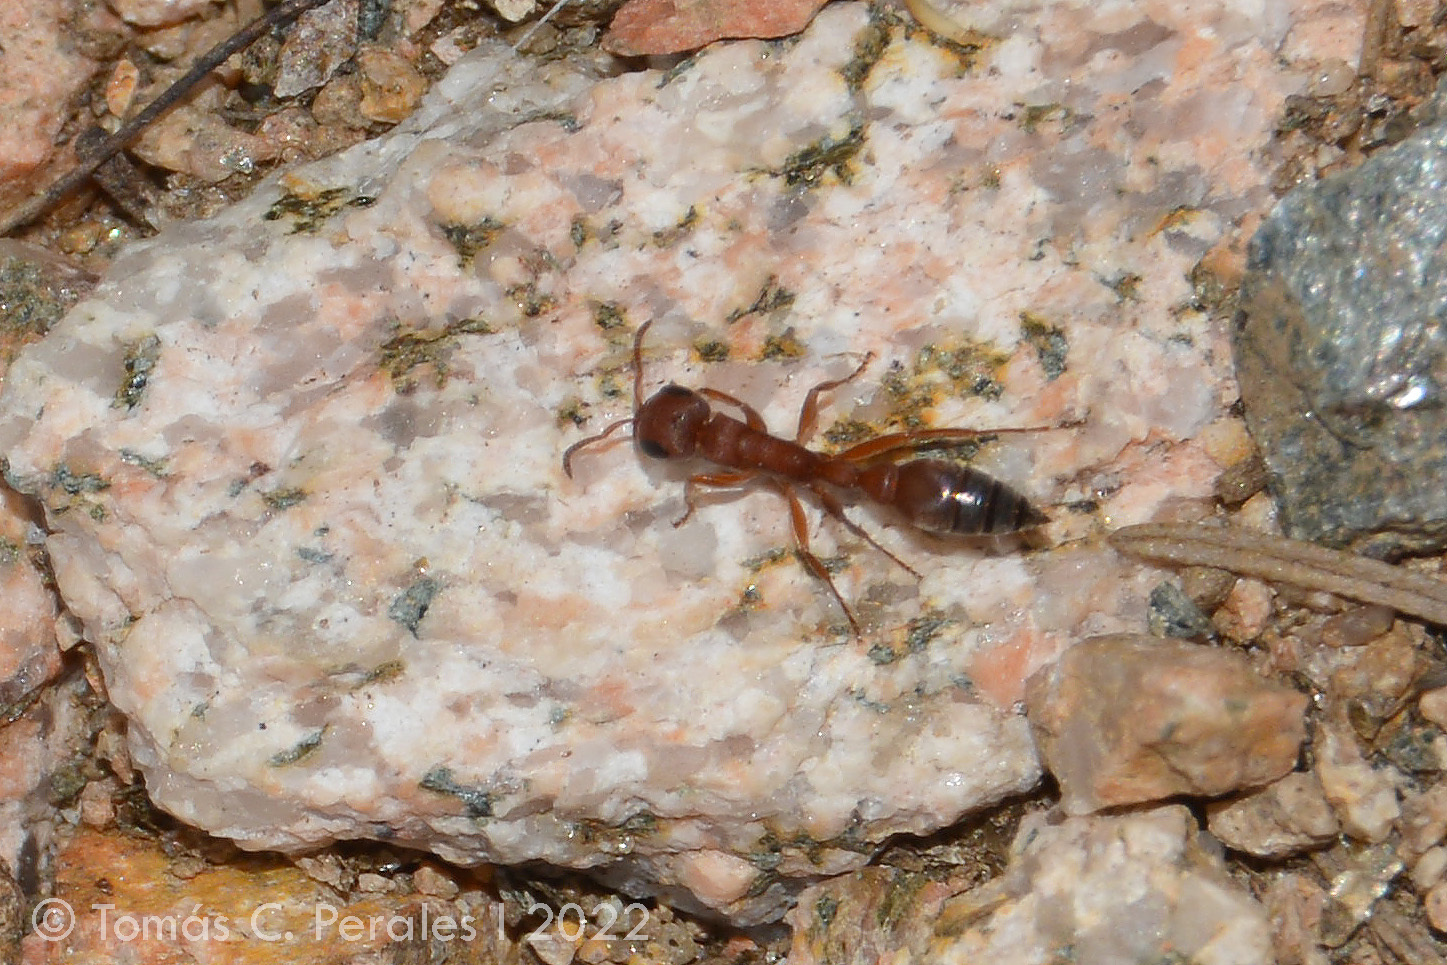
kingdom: Animalia
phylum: Arthropoda
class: Insecta
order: Hymenoptera
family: Formicidae
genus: Pseudomyrmex
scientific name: Pseudomyrmex denticollis
